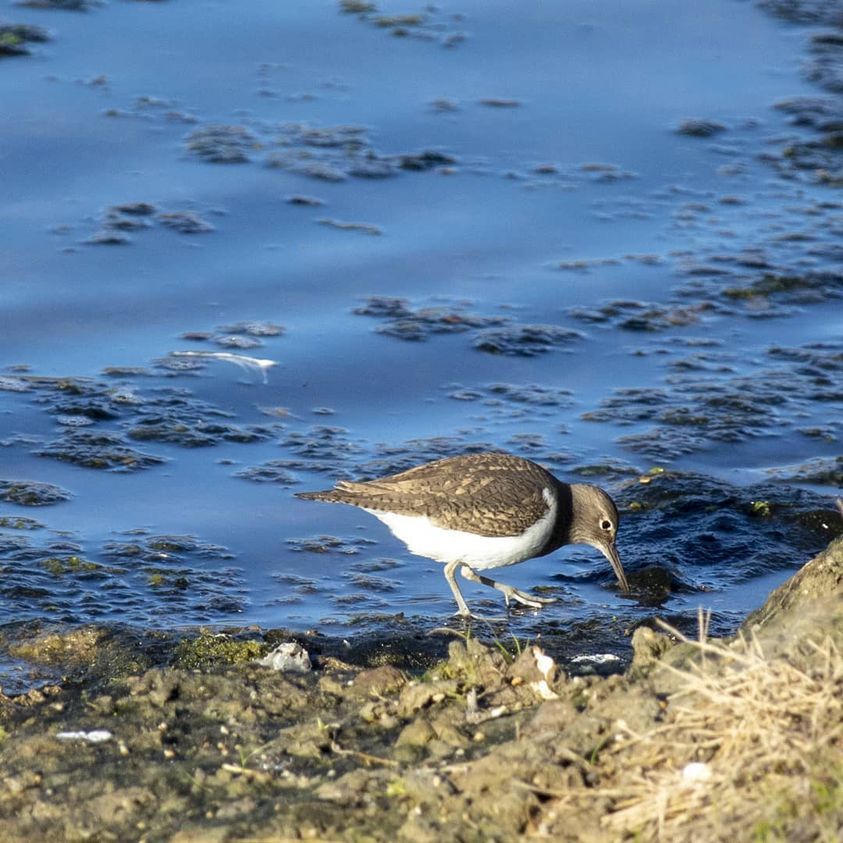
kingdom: Animalia
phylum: Chordata
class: Aves
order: Charadriiformes
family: Scolopacidae
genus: Actitis
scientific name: Actitis hypoleucos
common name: Common sandpiper
